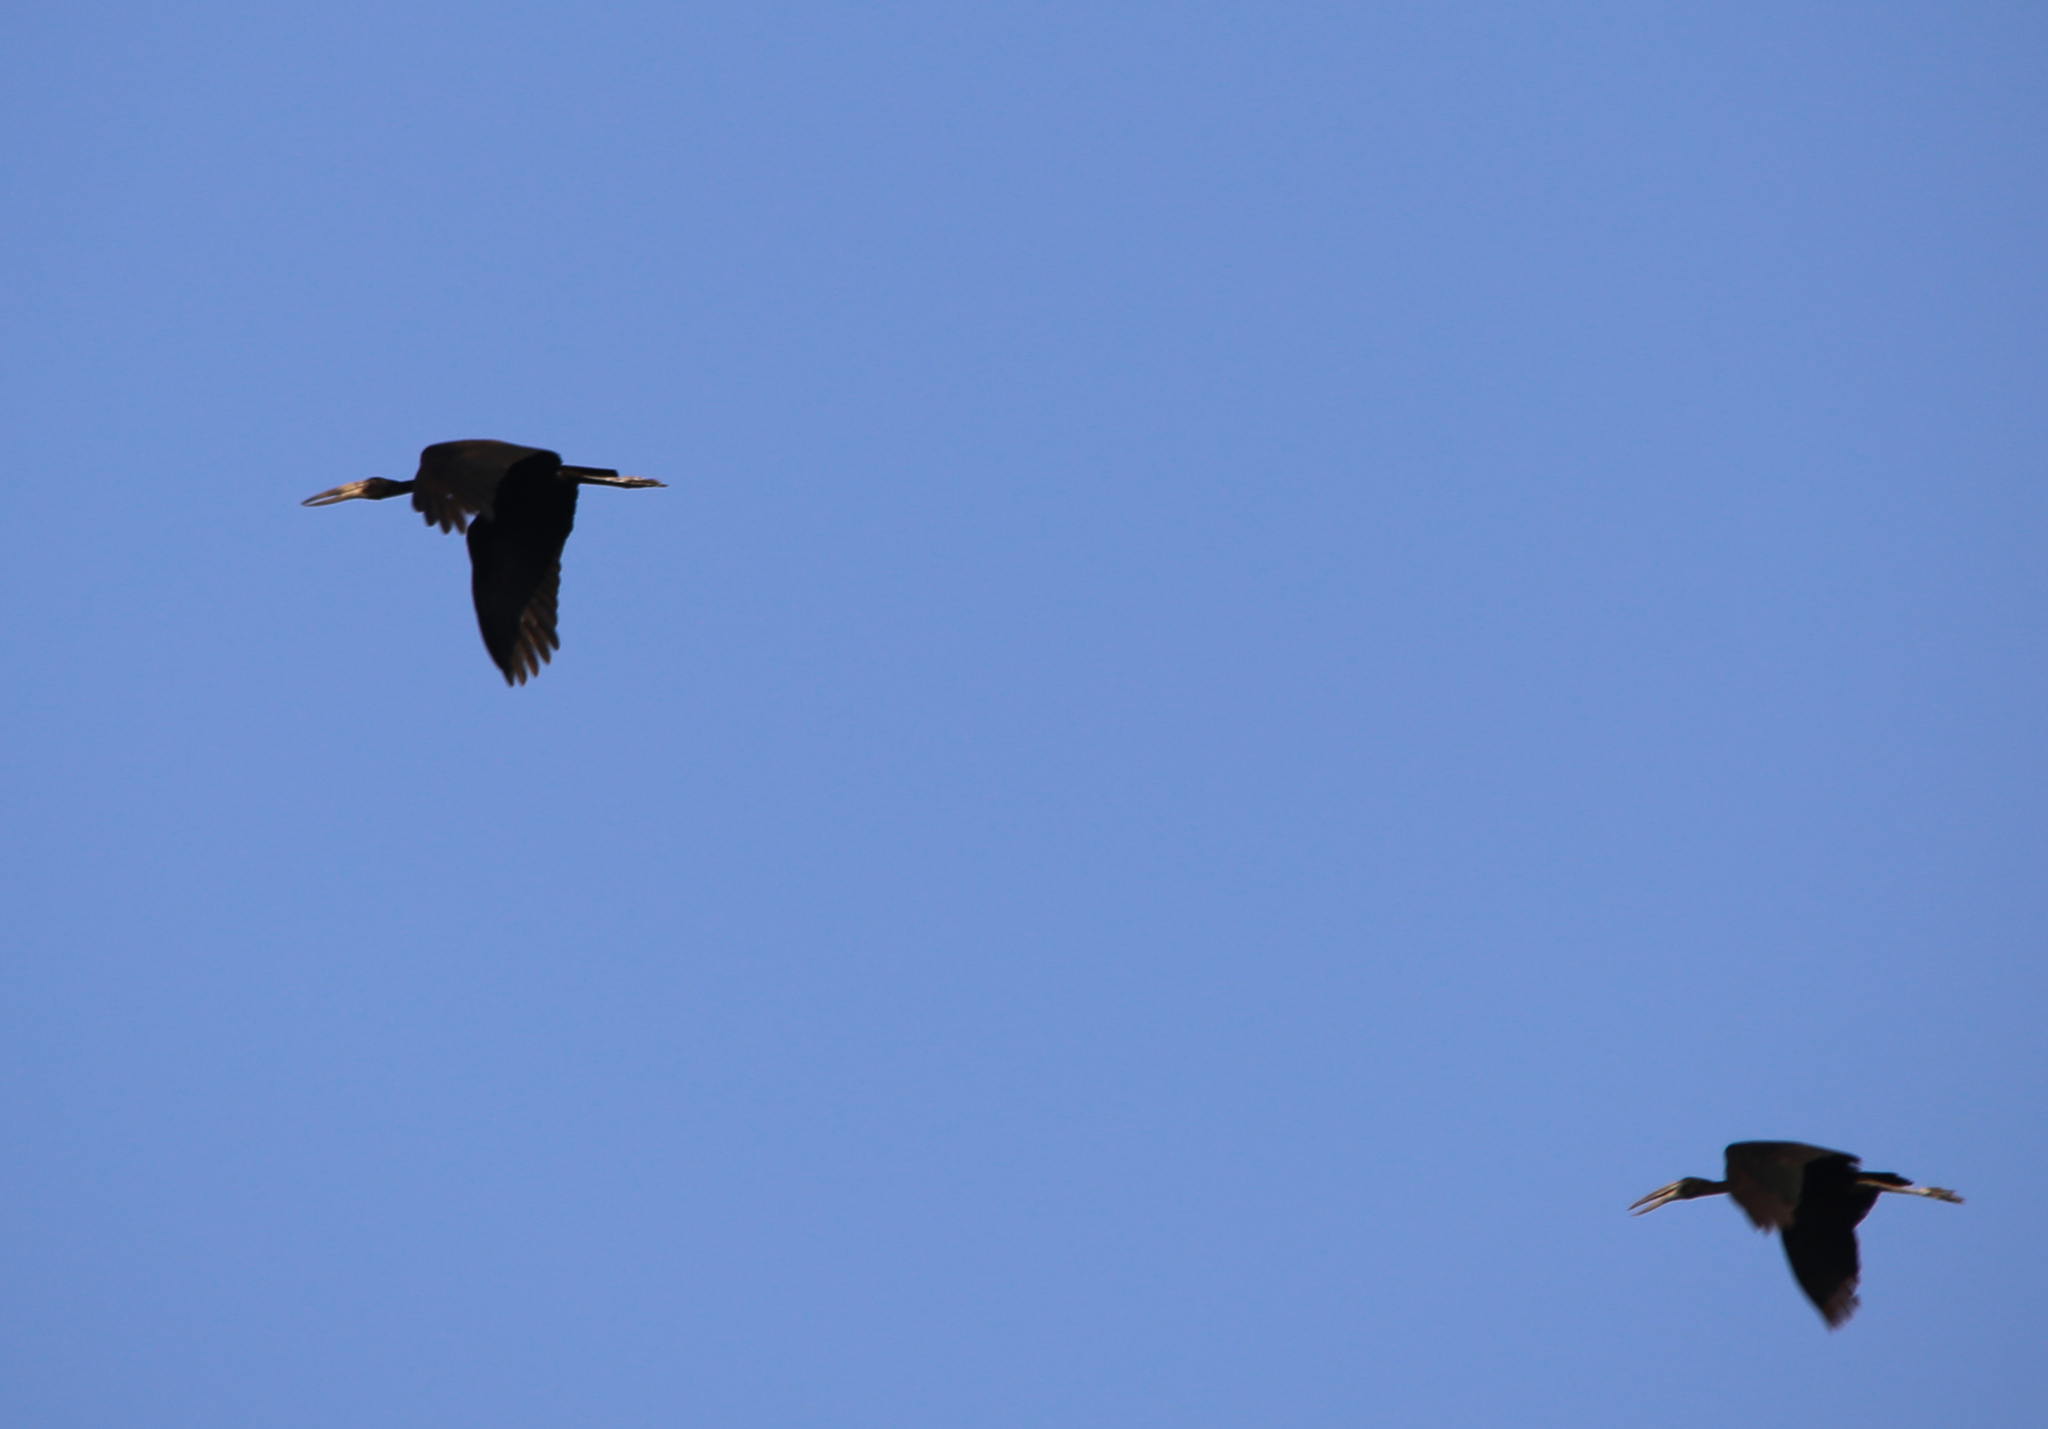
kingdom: Animalia
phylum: Chordata
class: Aves
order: Ciconiiformes
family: Ciconiidae
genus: Anastomus
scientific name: Anastomus lamelligerus
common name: African openbill
